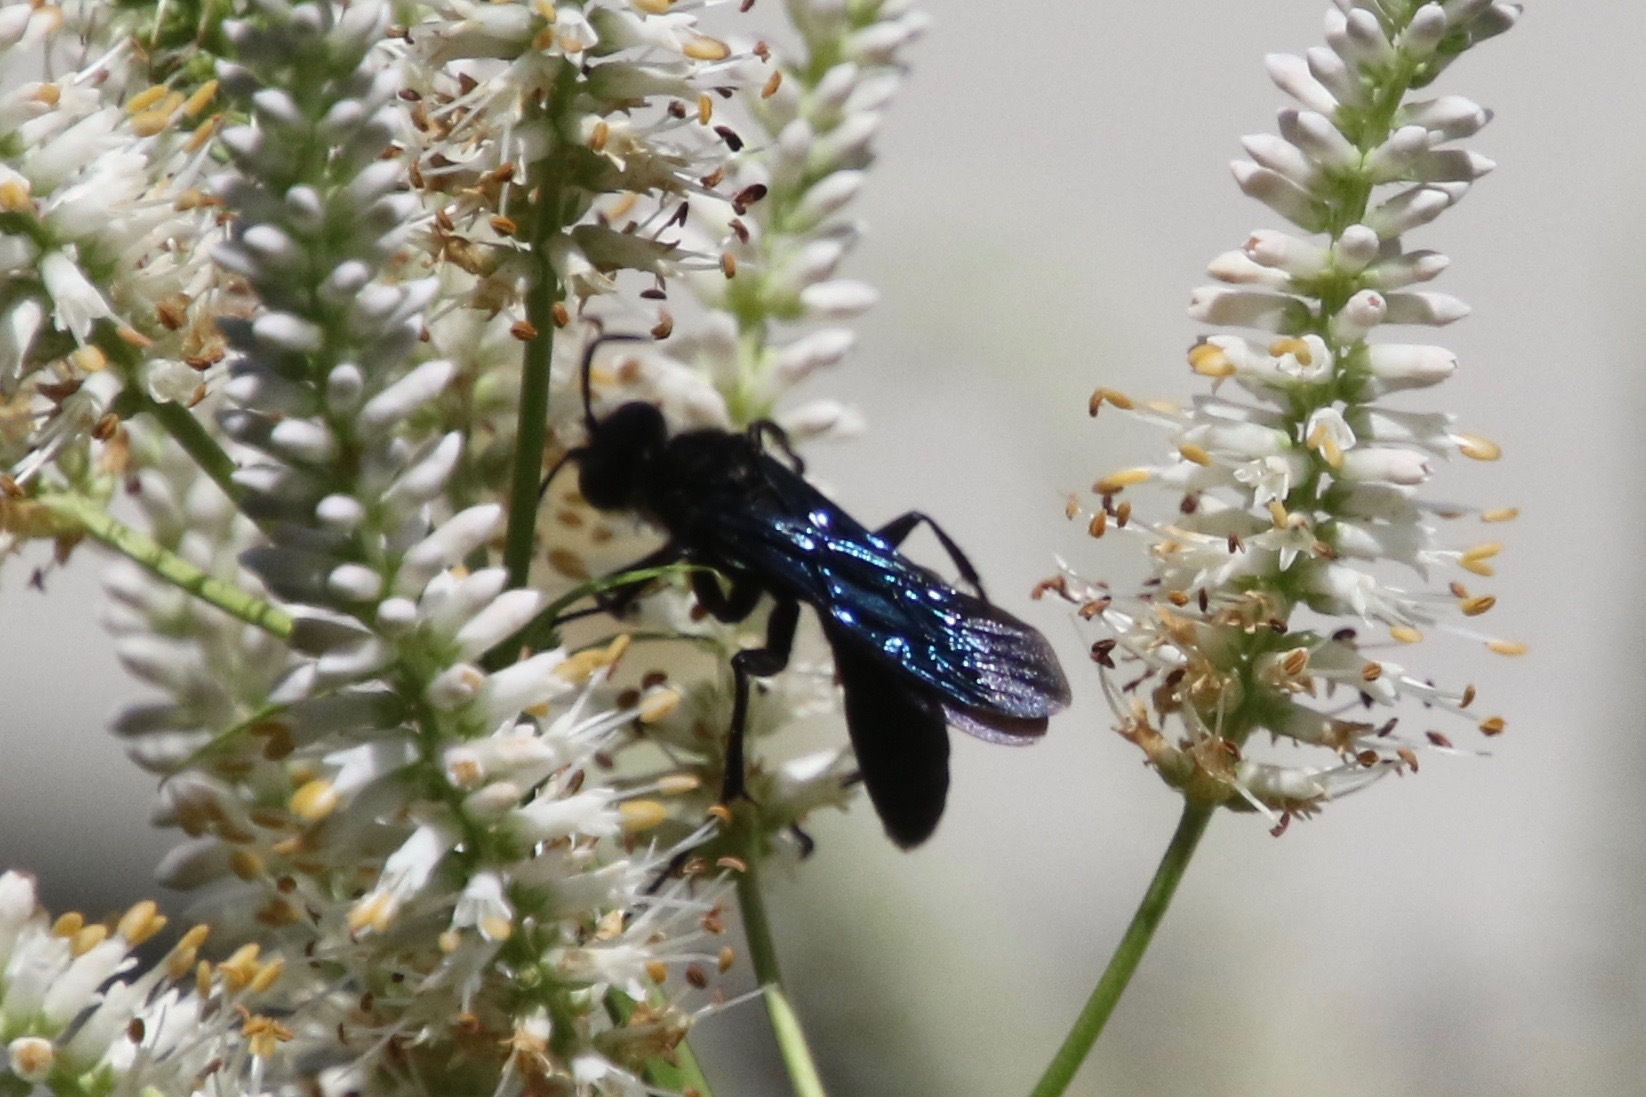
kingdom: Animalia
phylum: Arthropoda
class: Insecta
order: Hymenoptera
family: Sphecidae
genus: Sphex
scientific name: Sphex pensylvanicus
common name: Great black digger wasp
